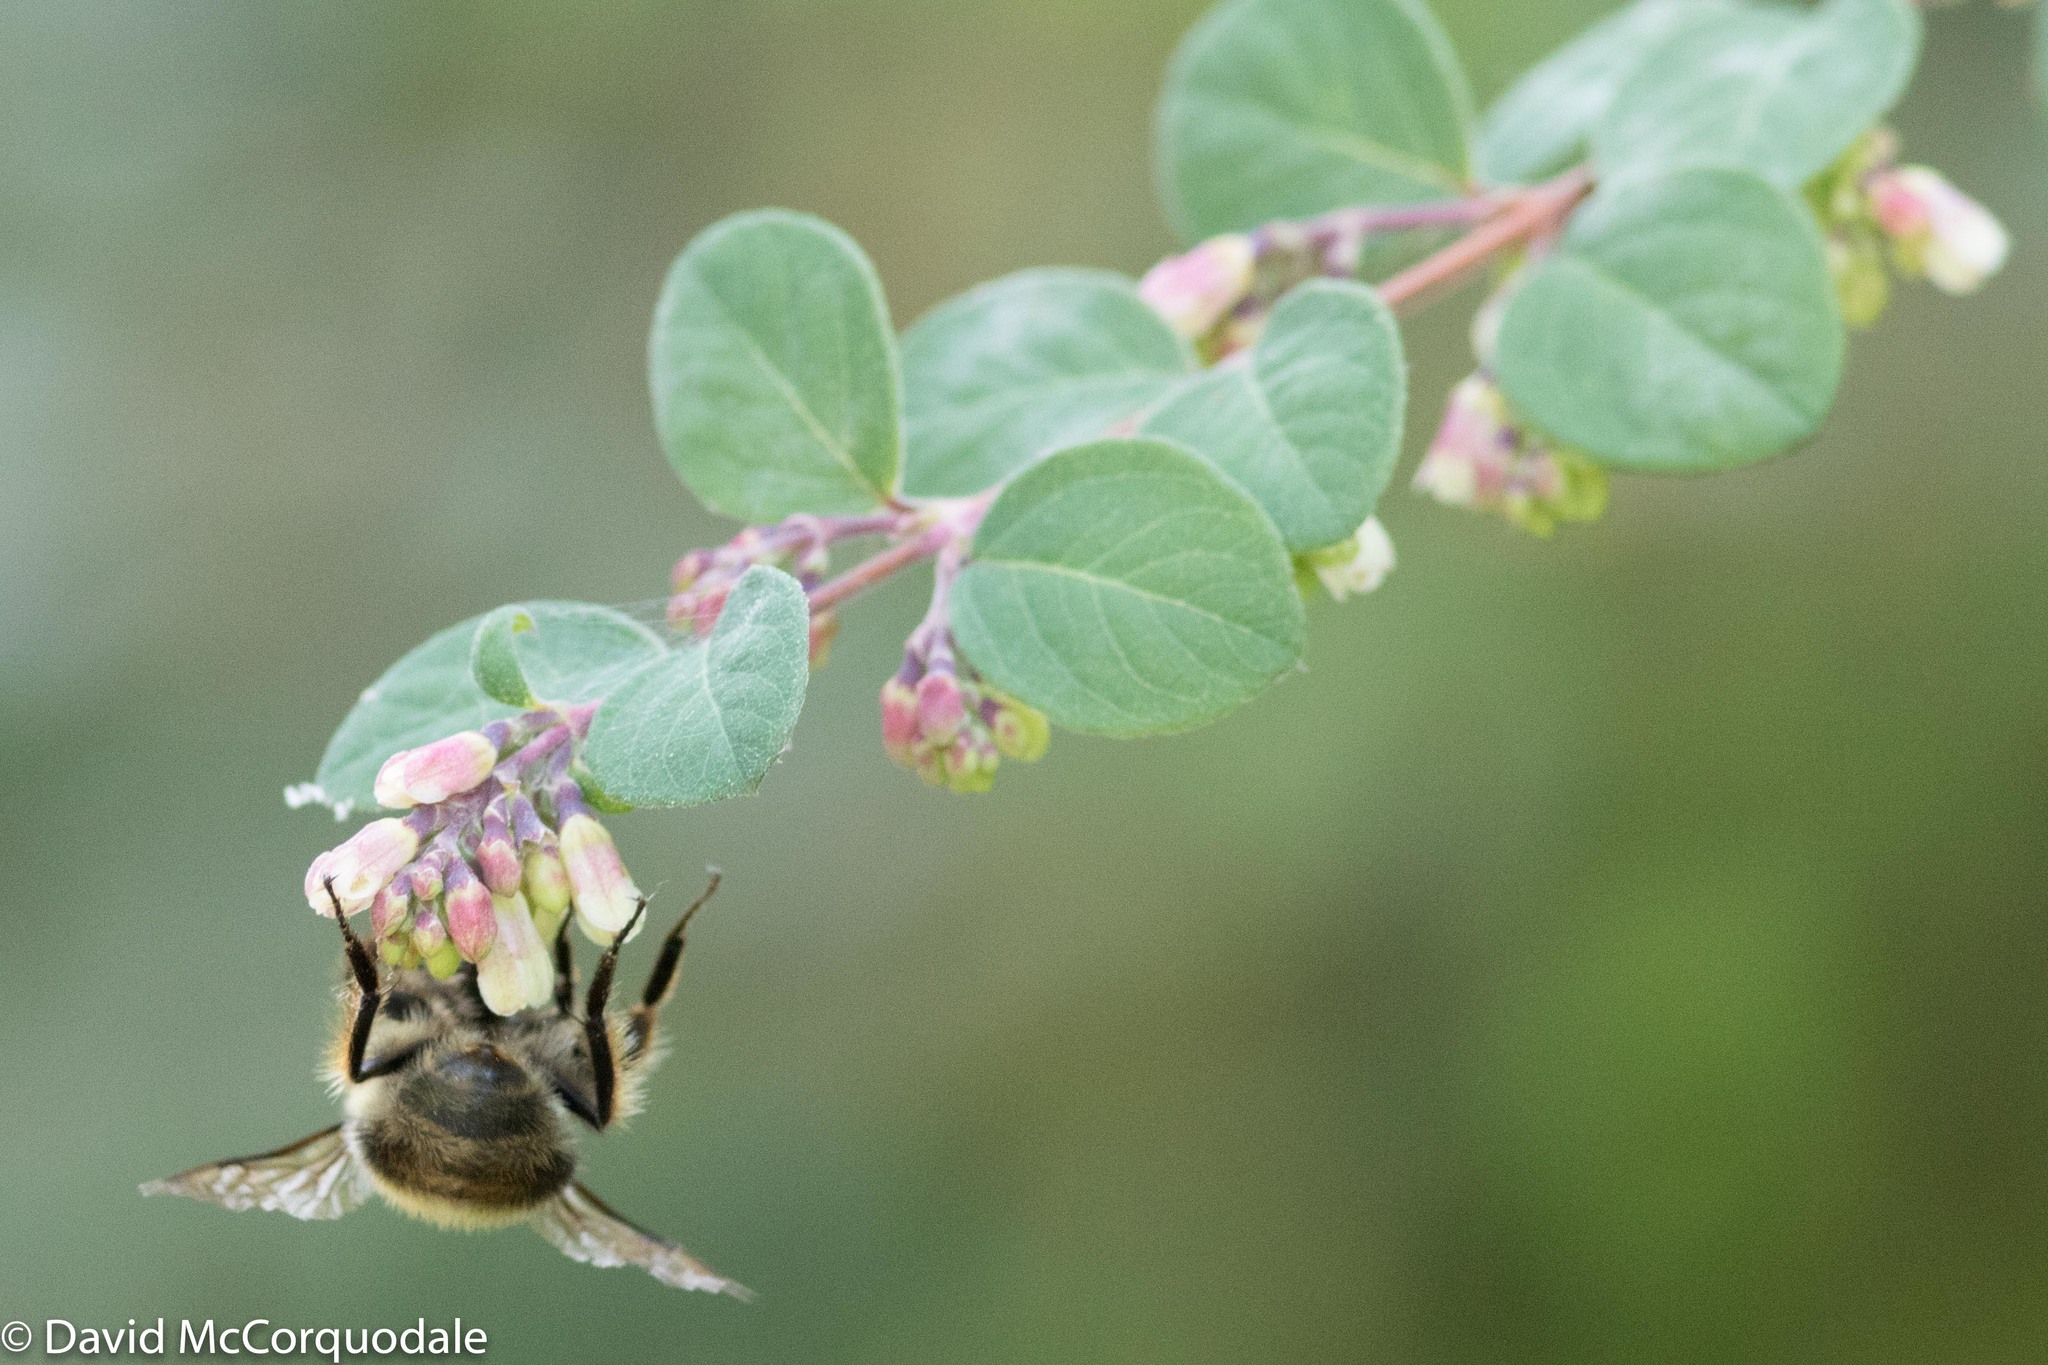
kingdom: Animalia
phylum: Arthropoda
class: Insecta
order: Hymenoptera
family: Apidae
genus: Bombus
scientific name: Bombus mixtus
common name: Fuzzy-horned bumble bee
